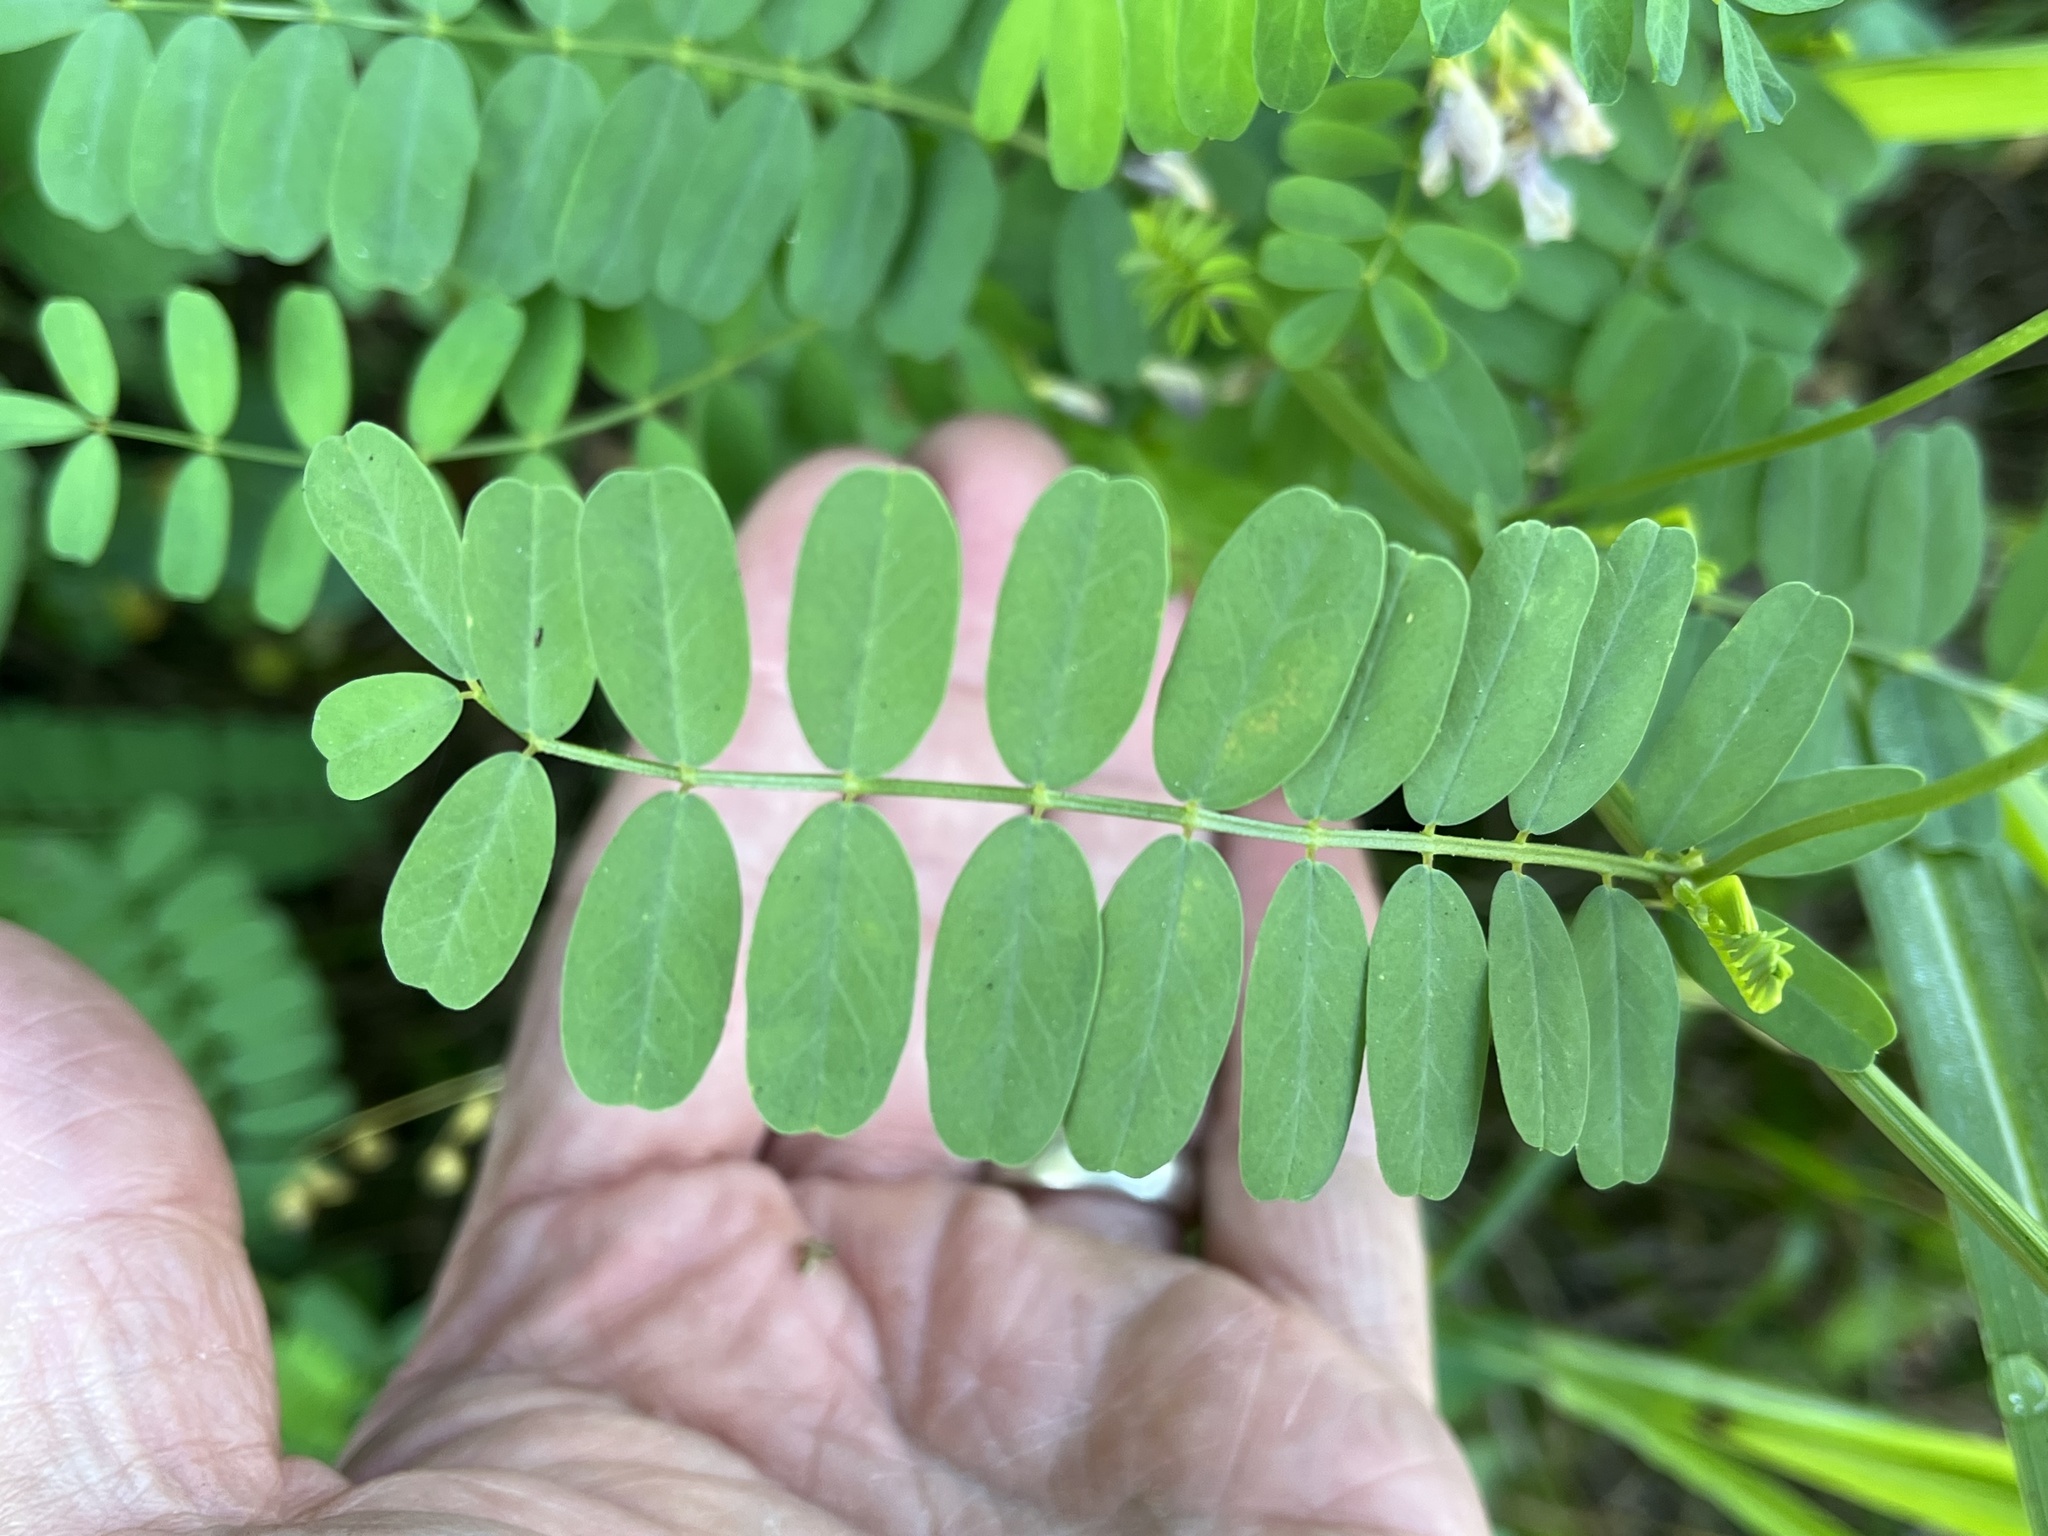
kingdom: Plantae
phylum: Tracheophyta
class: Magnoliopsida
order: Fabales
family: Fabaceae
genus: Coronilla
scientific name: Coronilla varia
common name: Crownvetch
